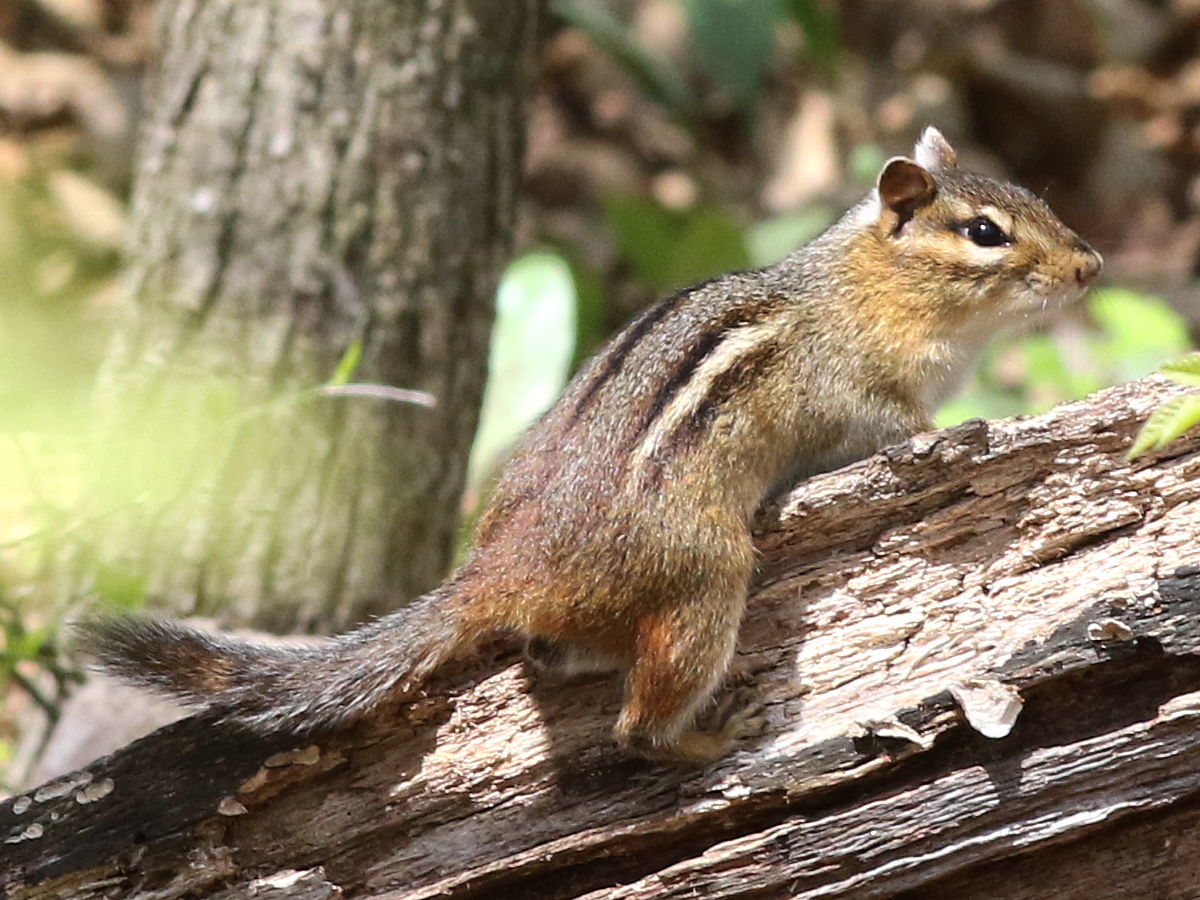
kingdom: Animalia
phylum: Chordata
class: Mammalia
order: Rodentia
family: Sciuridae
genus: Tamias
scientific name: Tamias striatus
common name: Eastern chipmunk
